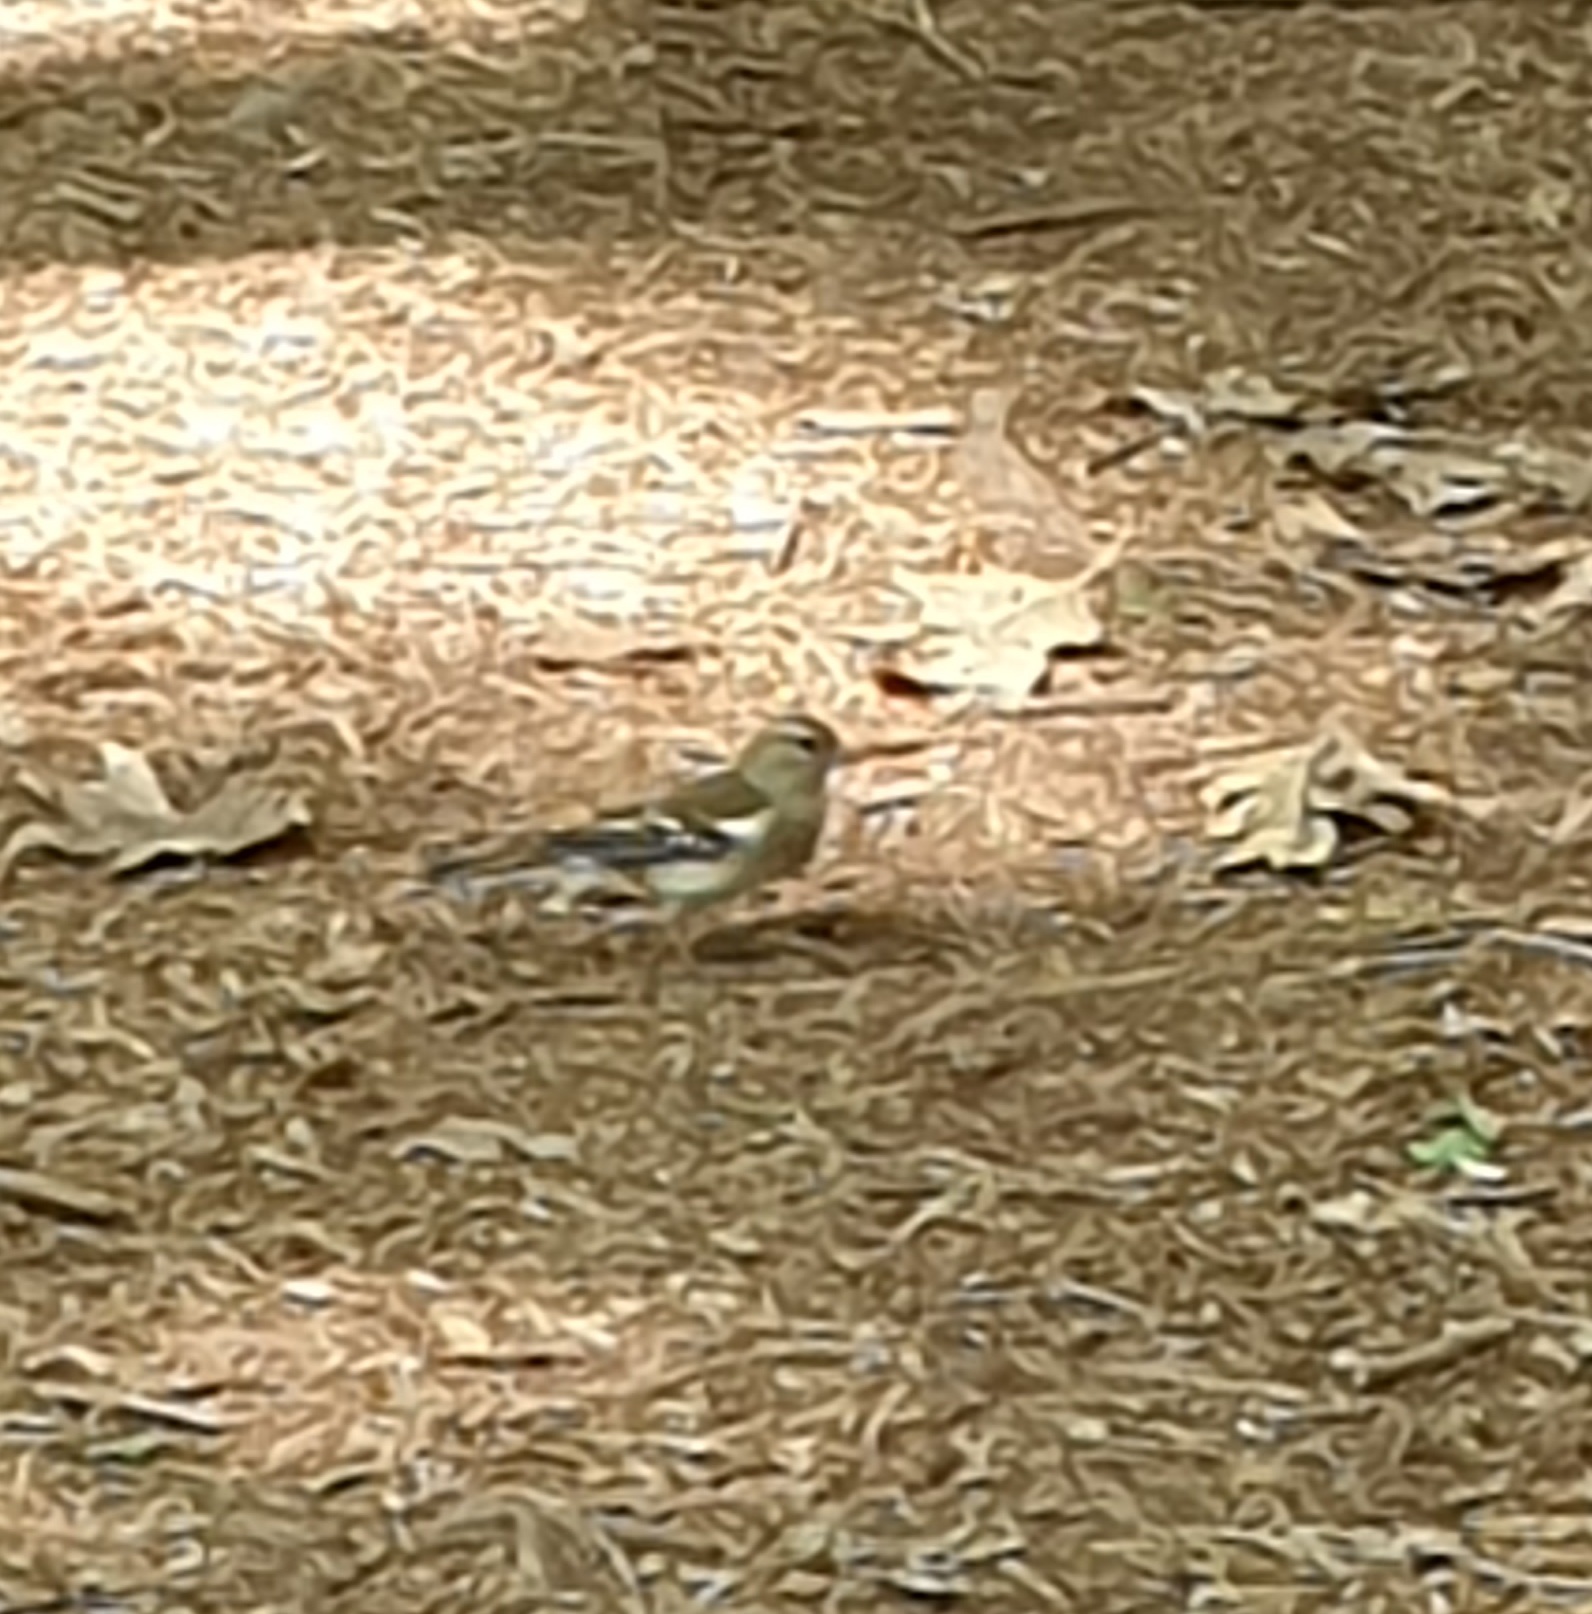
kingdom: Animalia
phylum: Chordata
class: Aves
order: Passeriformes
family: Fringillidae
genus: Fringilla
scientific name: Fringilla coelebs
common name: Common chaffinch
